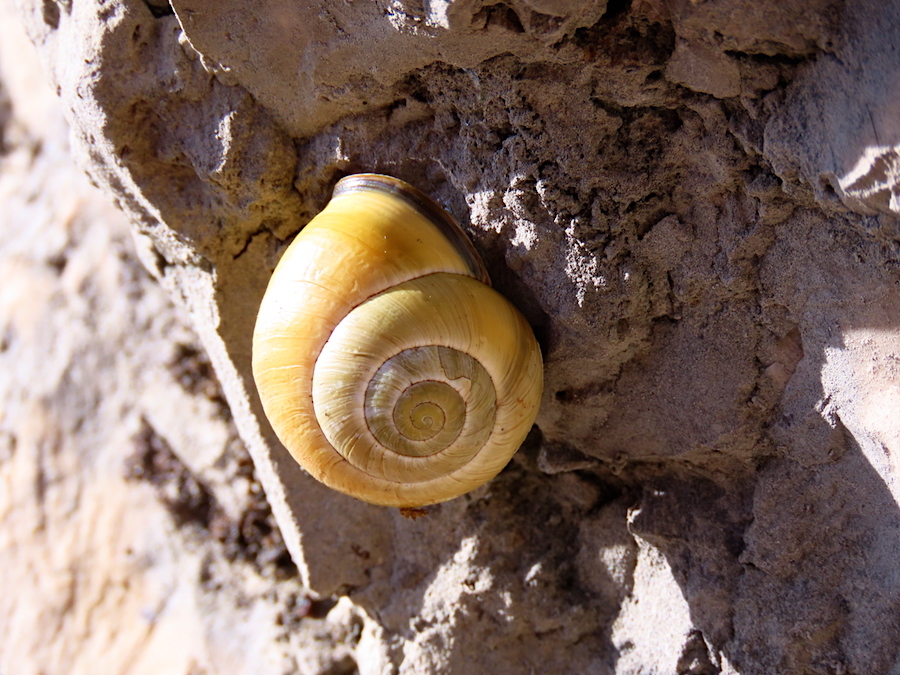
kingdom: Animalia
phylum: Mollusca
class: Gastropoda
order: Stylommatophora
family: Helicidae
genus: Cepaea
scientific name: Cepaea nemoralis
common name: Grovesnail
